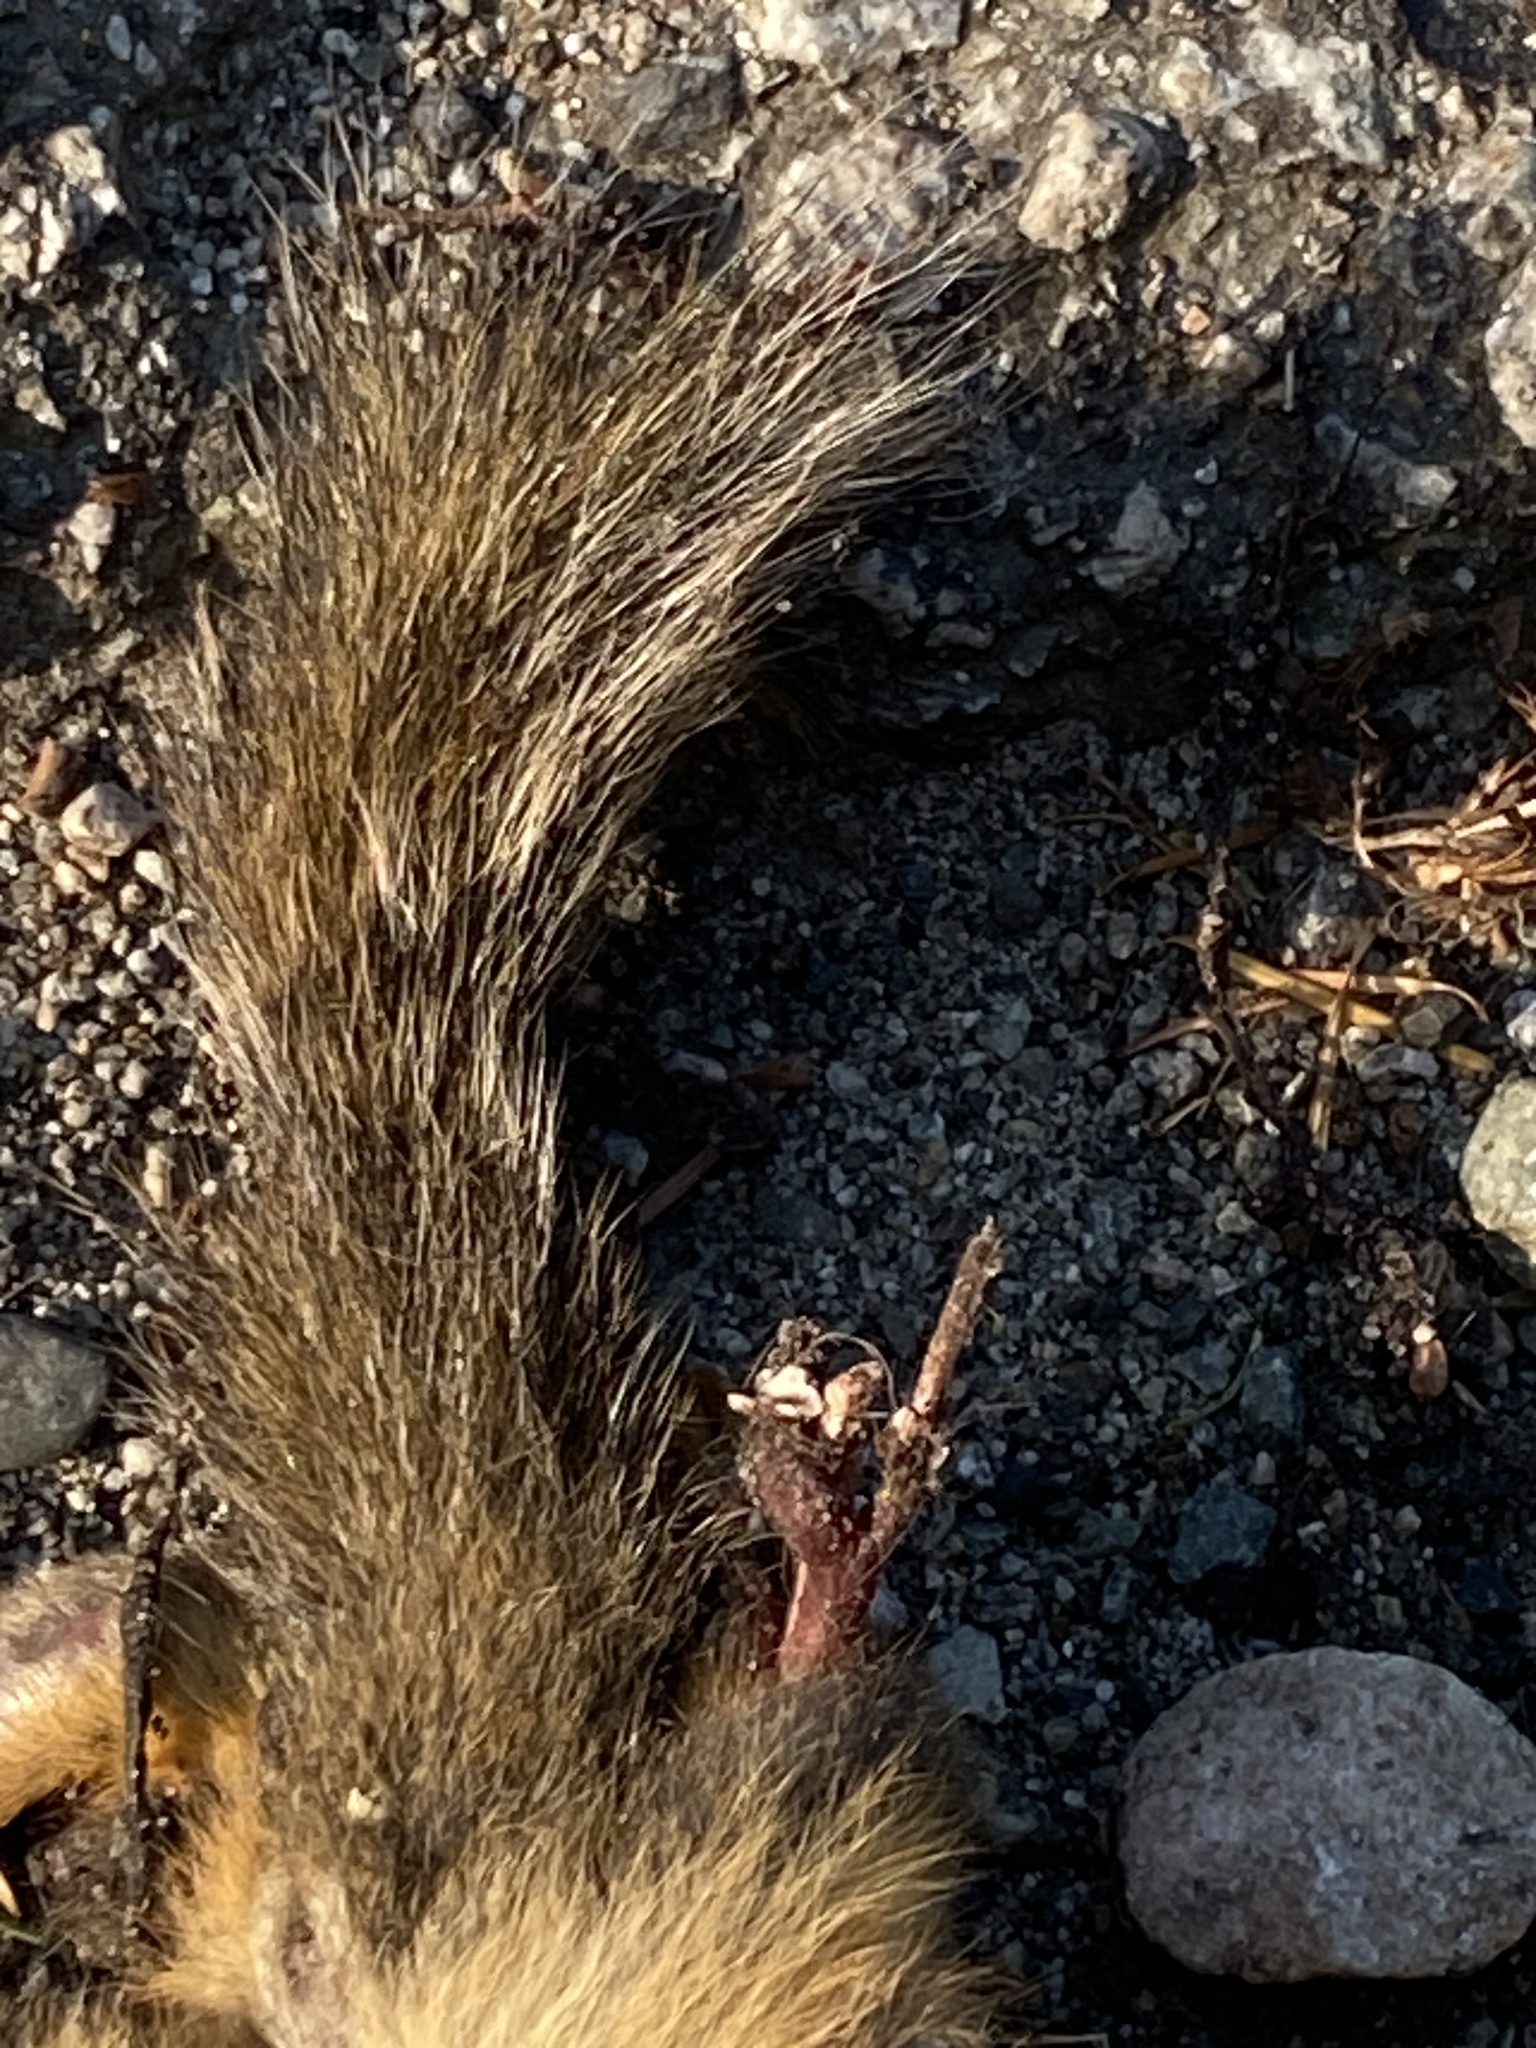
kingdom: Animalia
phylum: Chordata
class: Mammalia
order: Rodentia
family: Sciuridae
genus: Tamiasciurus
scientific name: Tamiasciurus douglasii
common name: Douglas's squirrel
